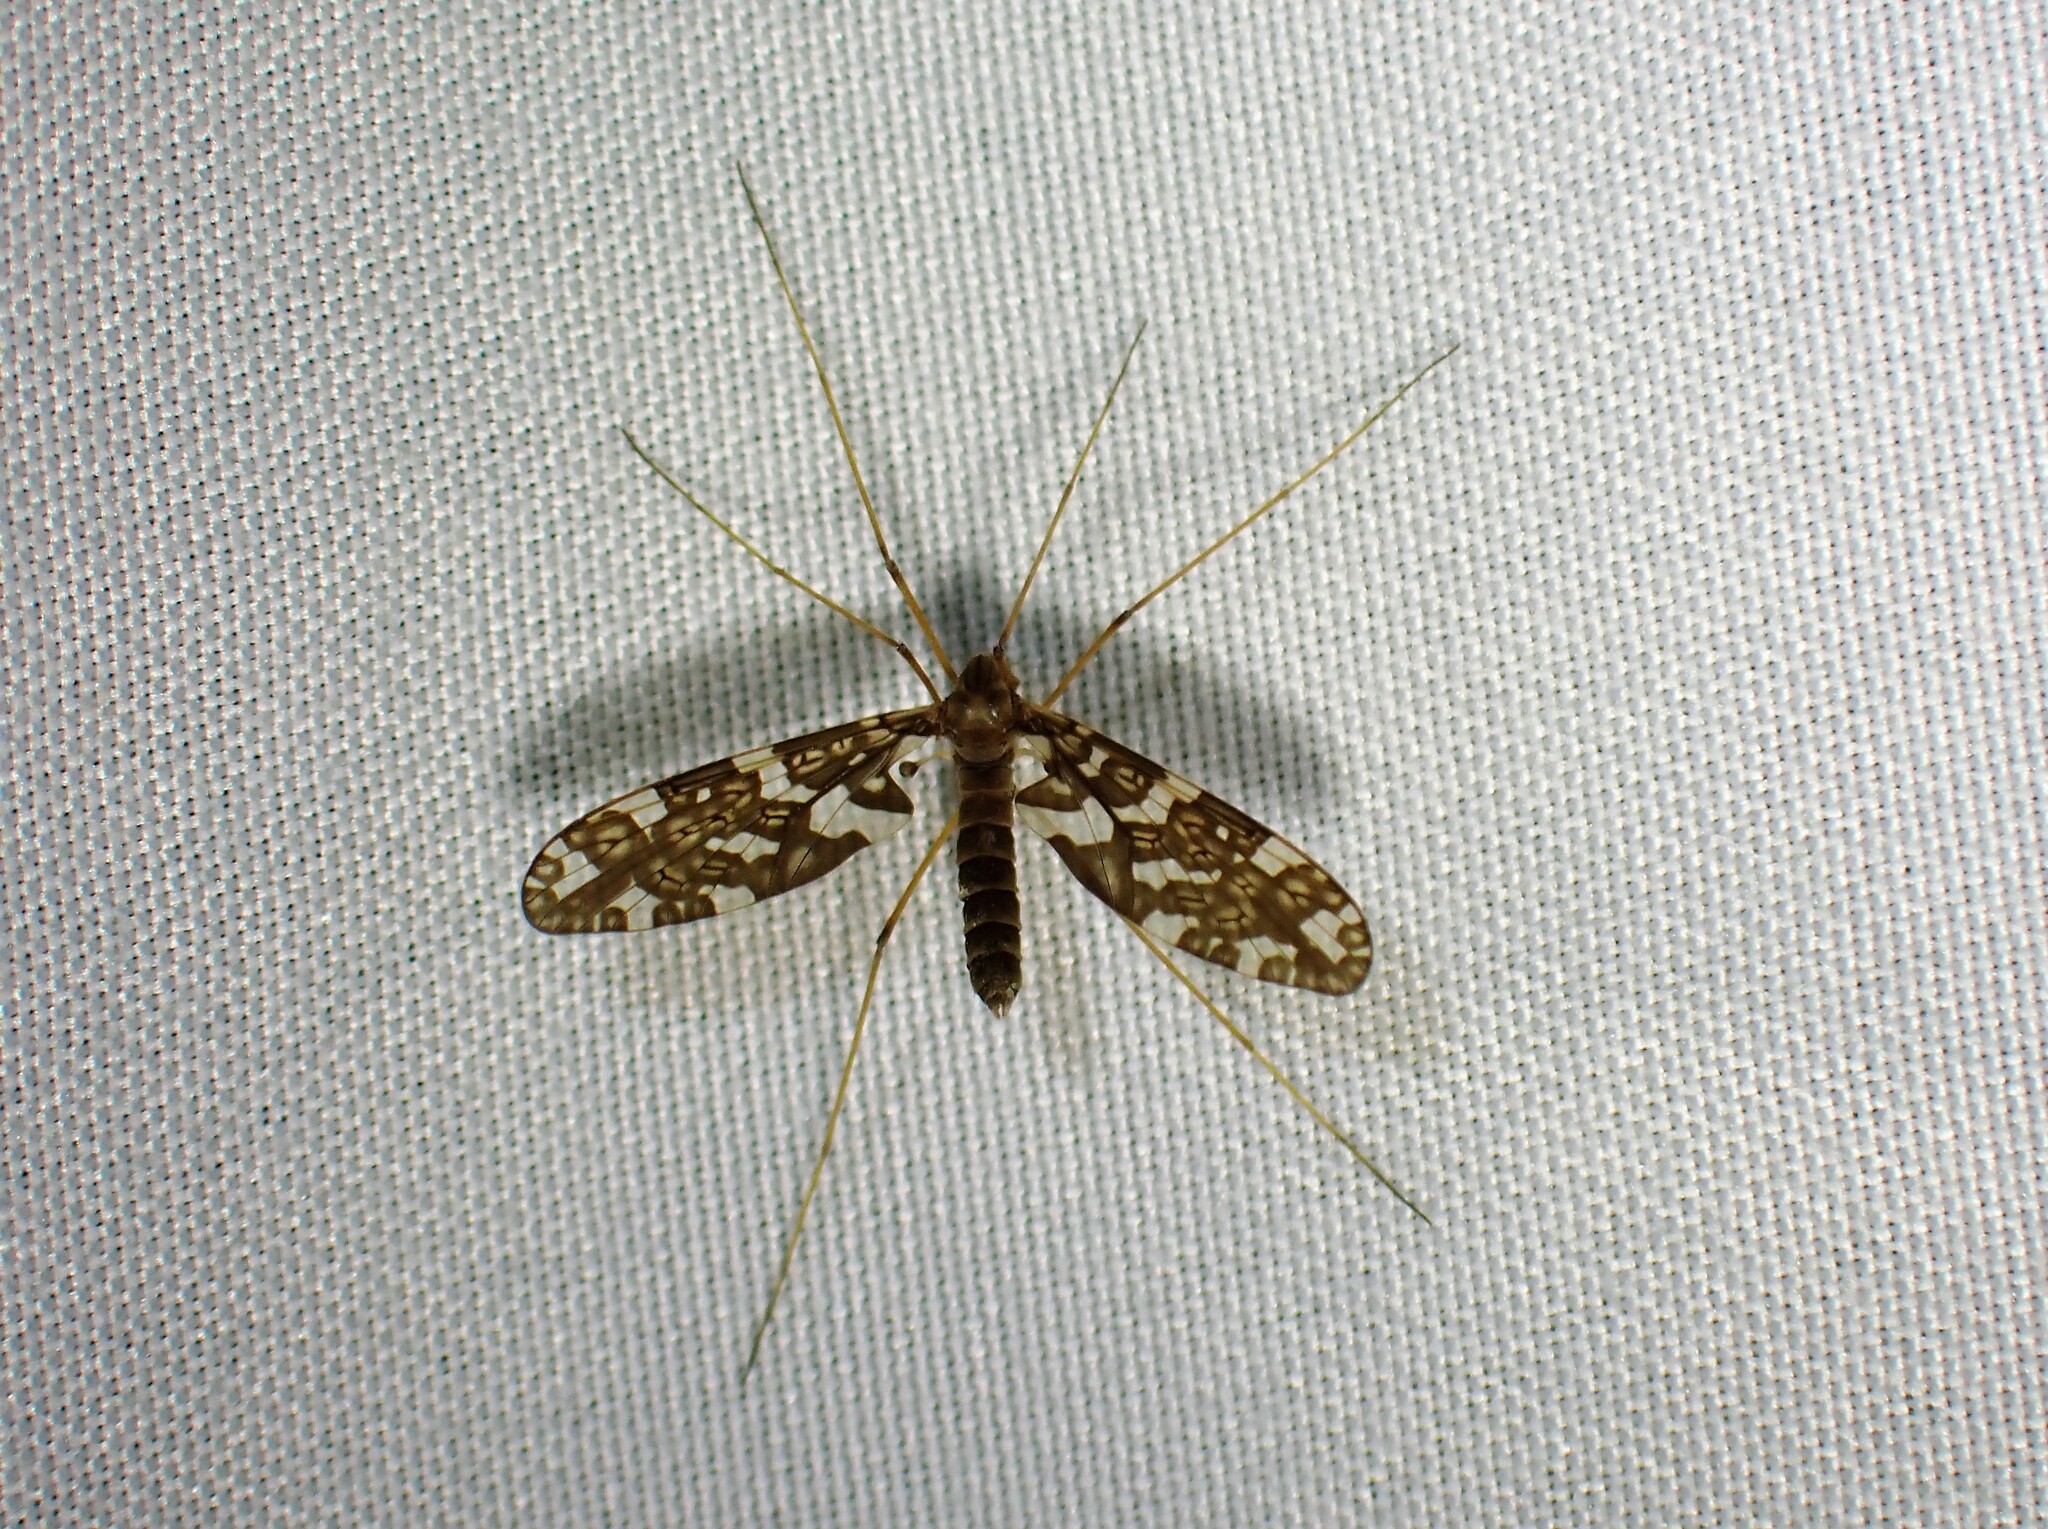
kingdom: Animalia
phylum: Arthropoda
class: Insecta
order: Diptera
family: Tanyderidae
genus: Protoplasa
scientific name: Protoplasa fitchii
